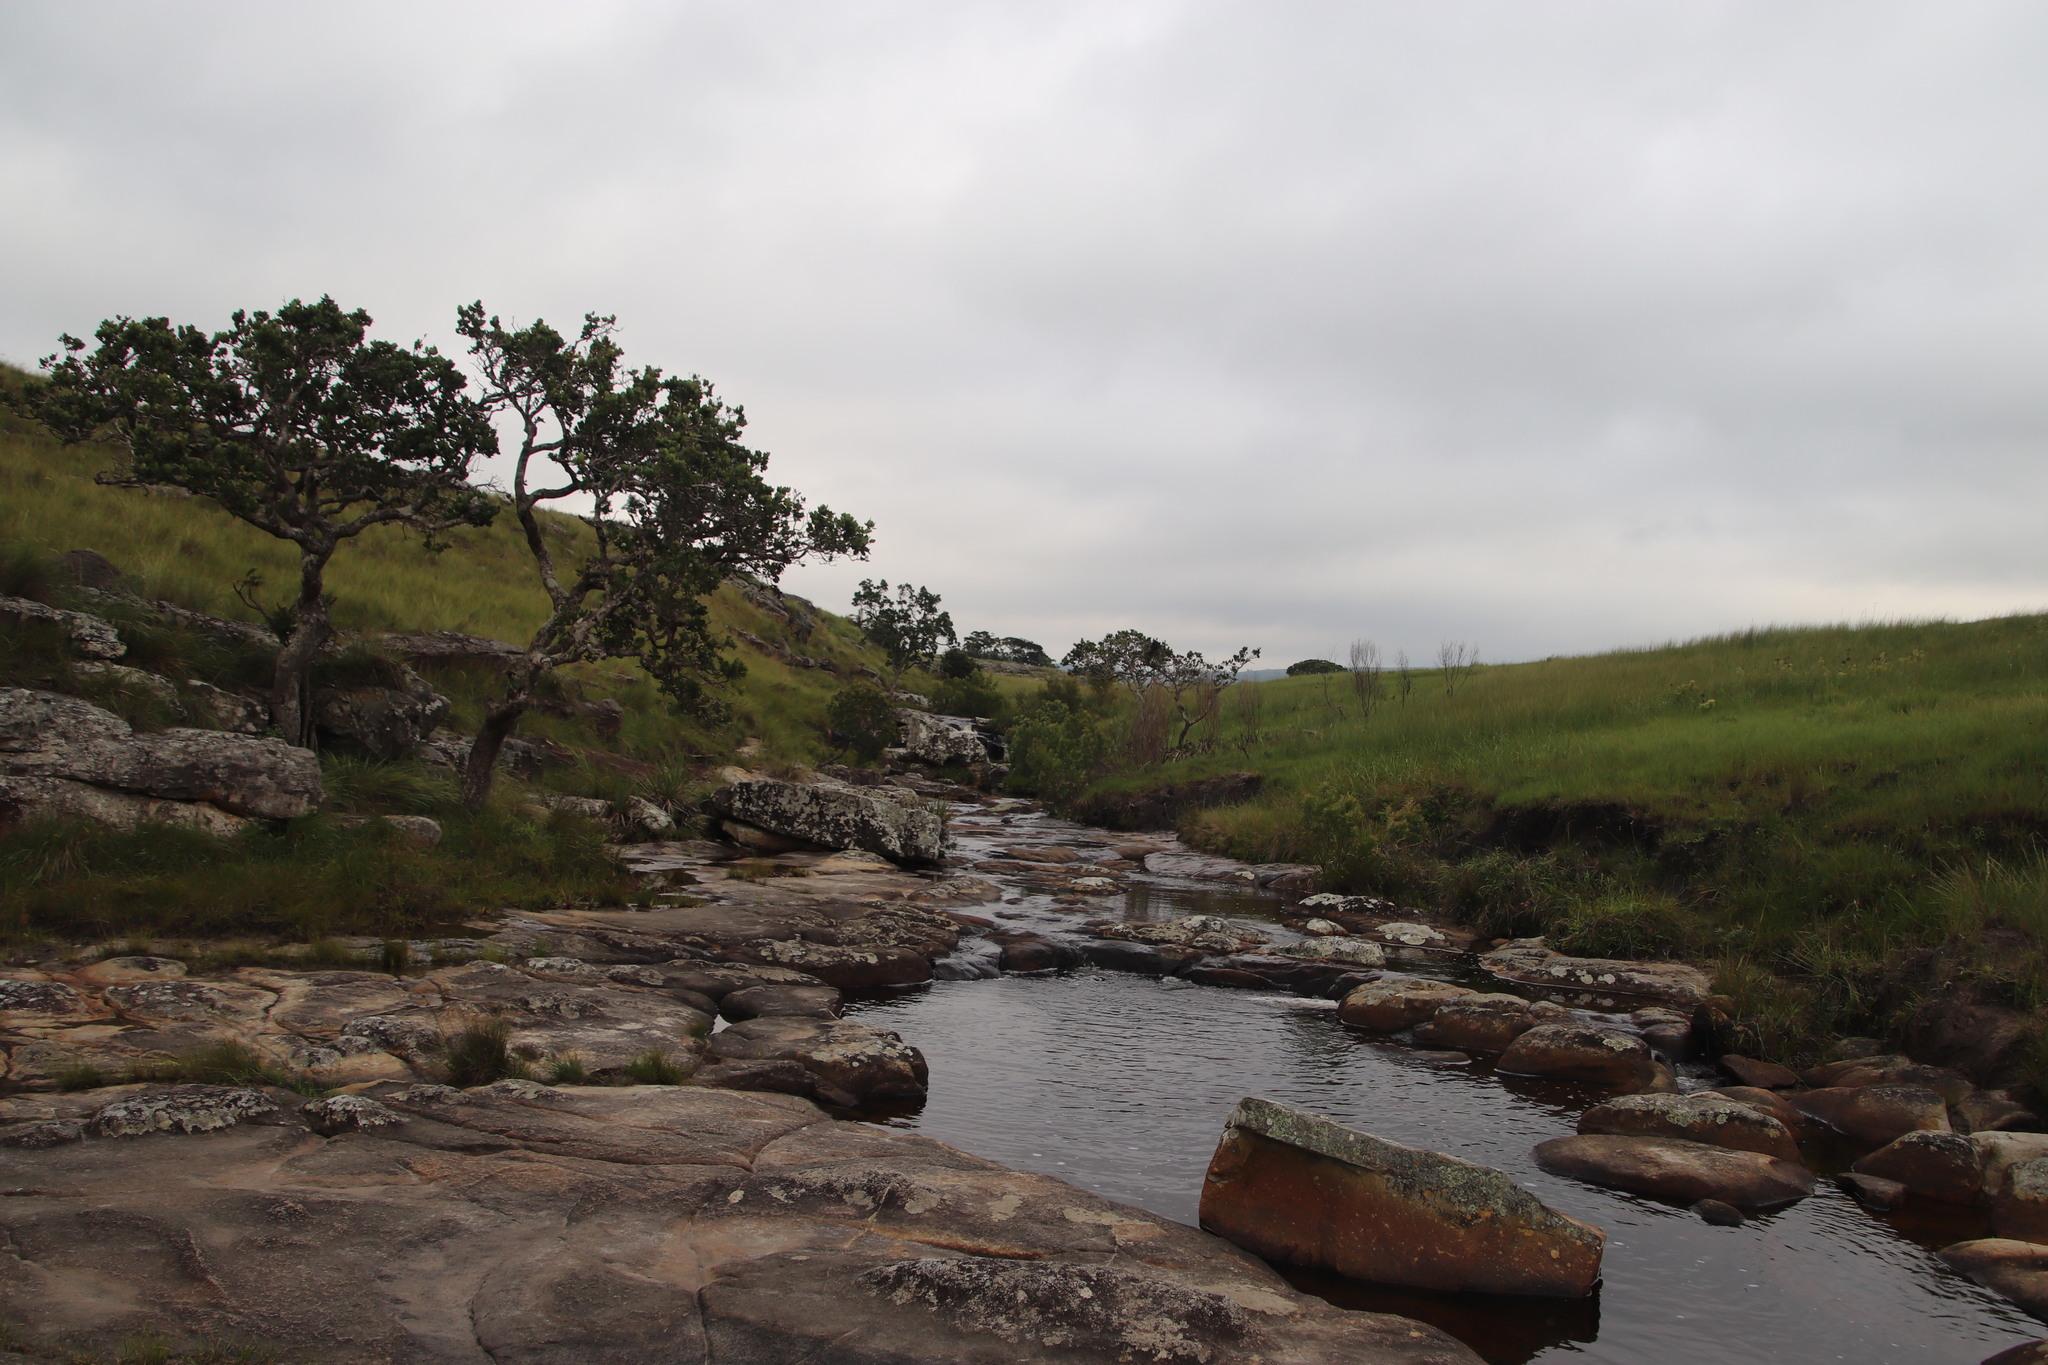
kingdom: Plantae
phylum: Tracheophyta
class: Magnoliopsida
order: Myrtales
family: Myrtaceae
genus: Syzygium
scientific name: Syzygium cordatum
